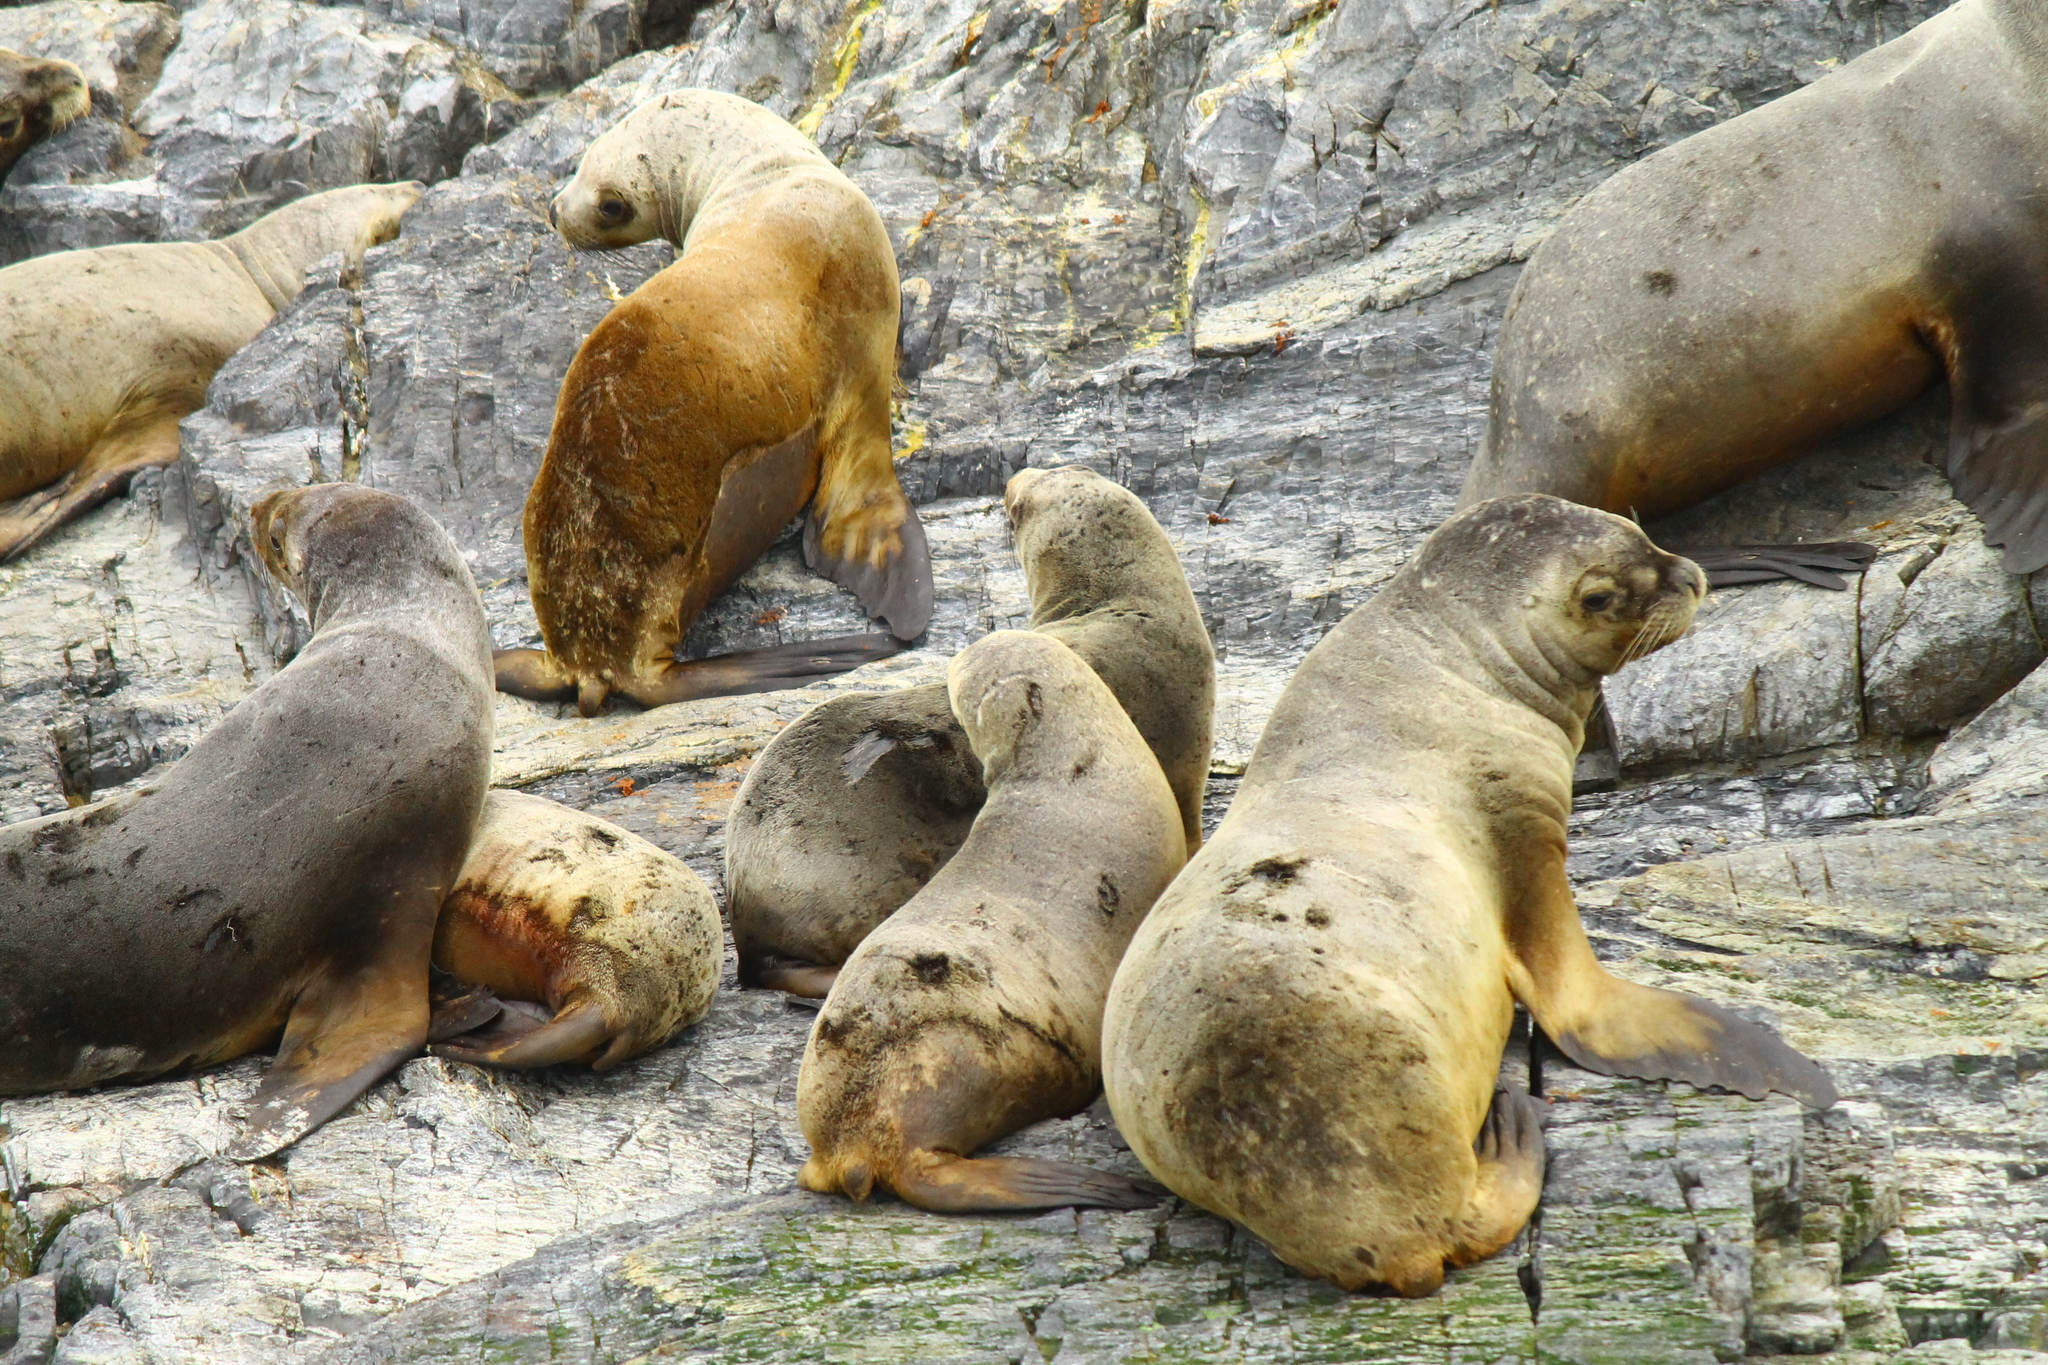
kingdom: Animalia
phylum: Chordata
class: Mammalia
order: Carnivora
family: Otariidae
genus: Otaria
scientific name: Otaria byronia
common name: South american sea lion
